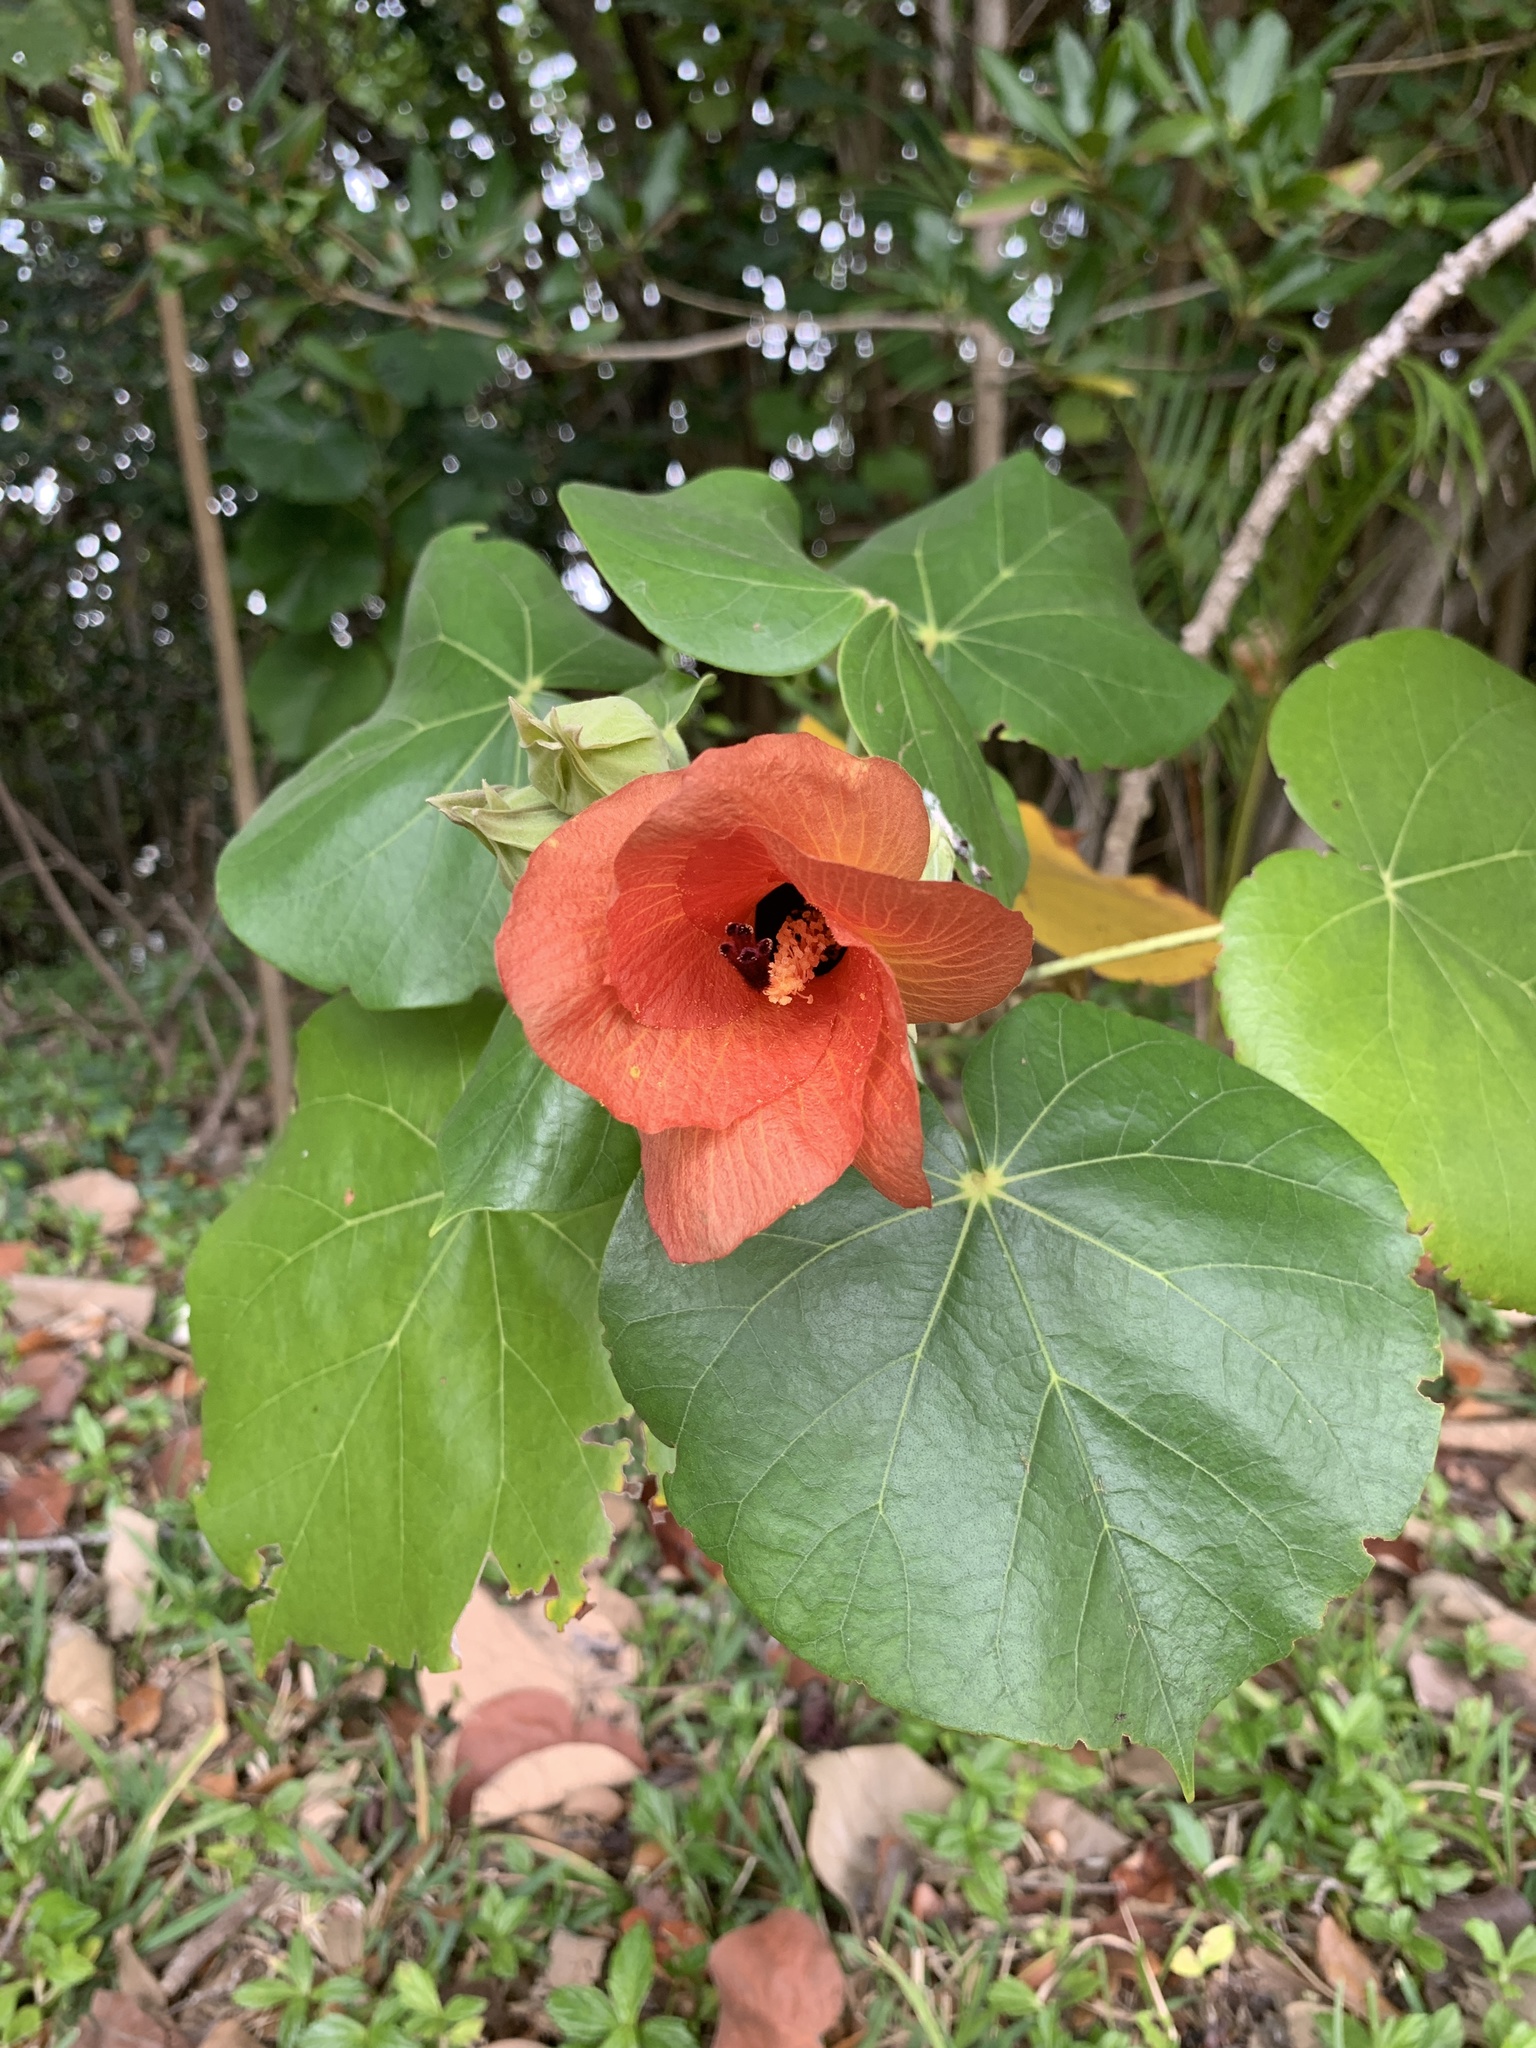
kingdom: Plantae
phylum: Tracheophyta
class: Magnoliopsida
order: Malvales
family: Malvaceae
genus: Talipariti
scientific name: Talipariti tiliaceum
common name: Sea hibiscus
